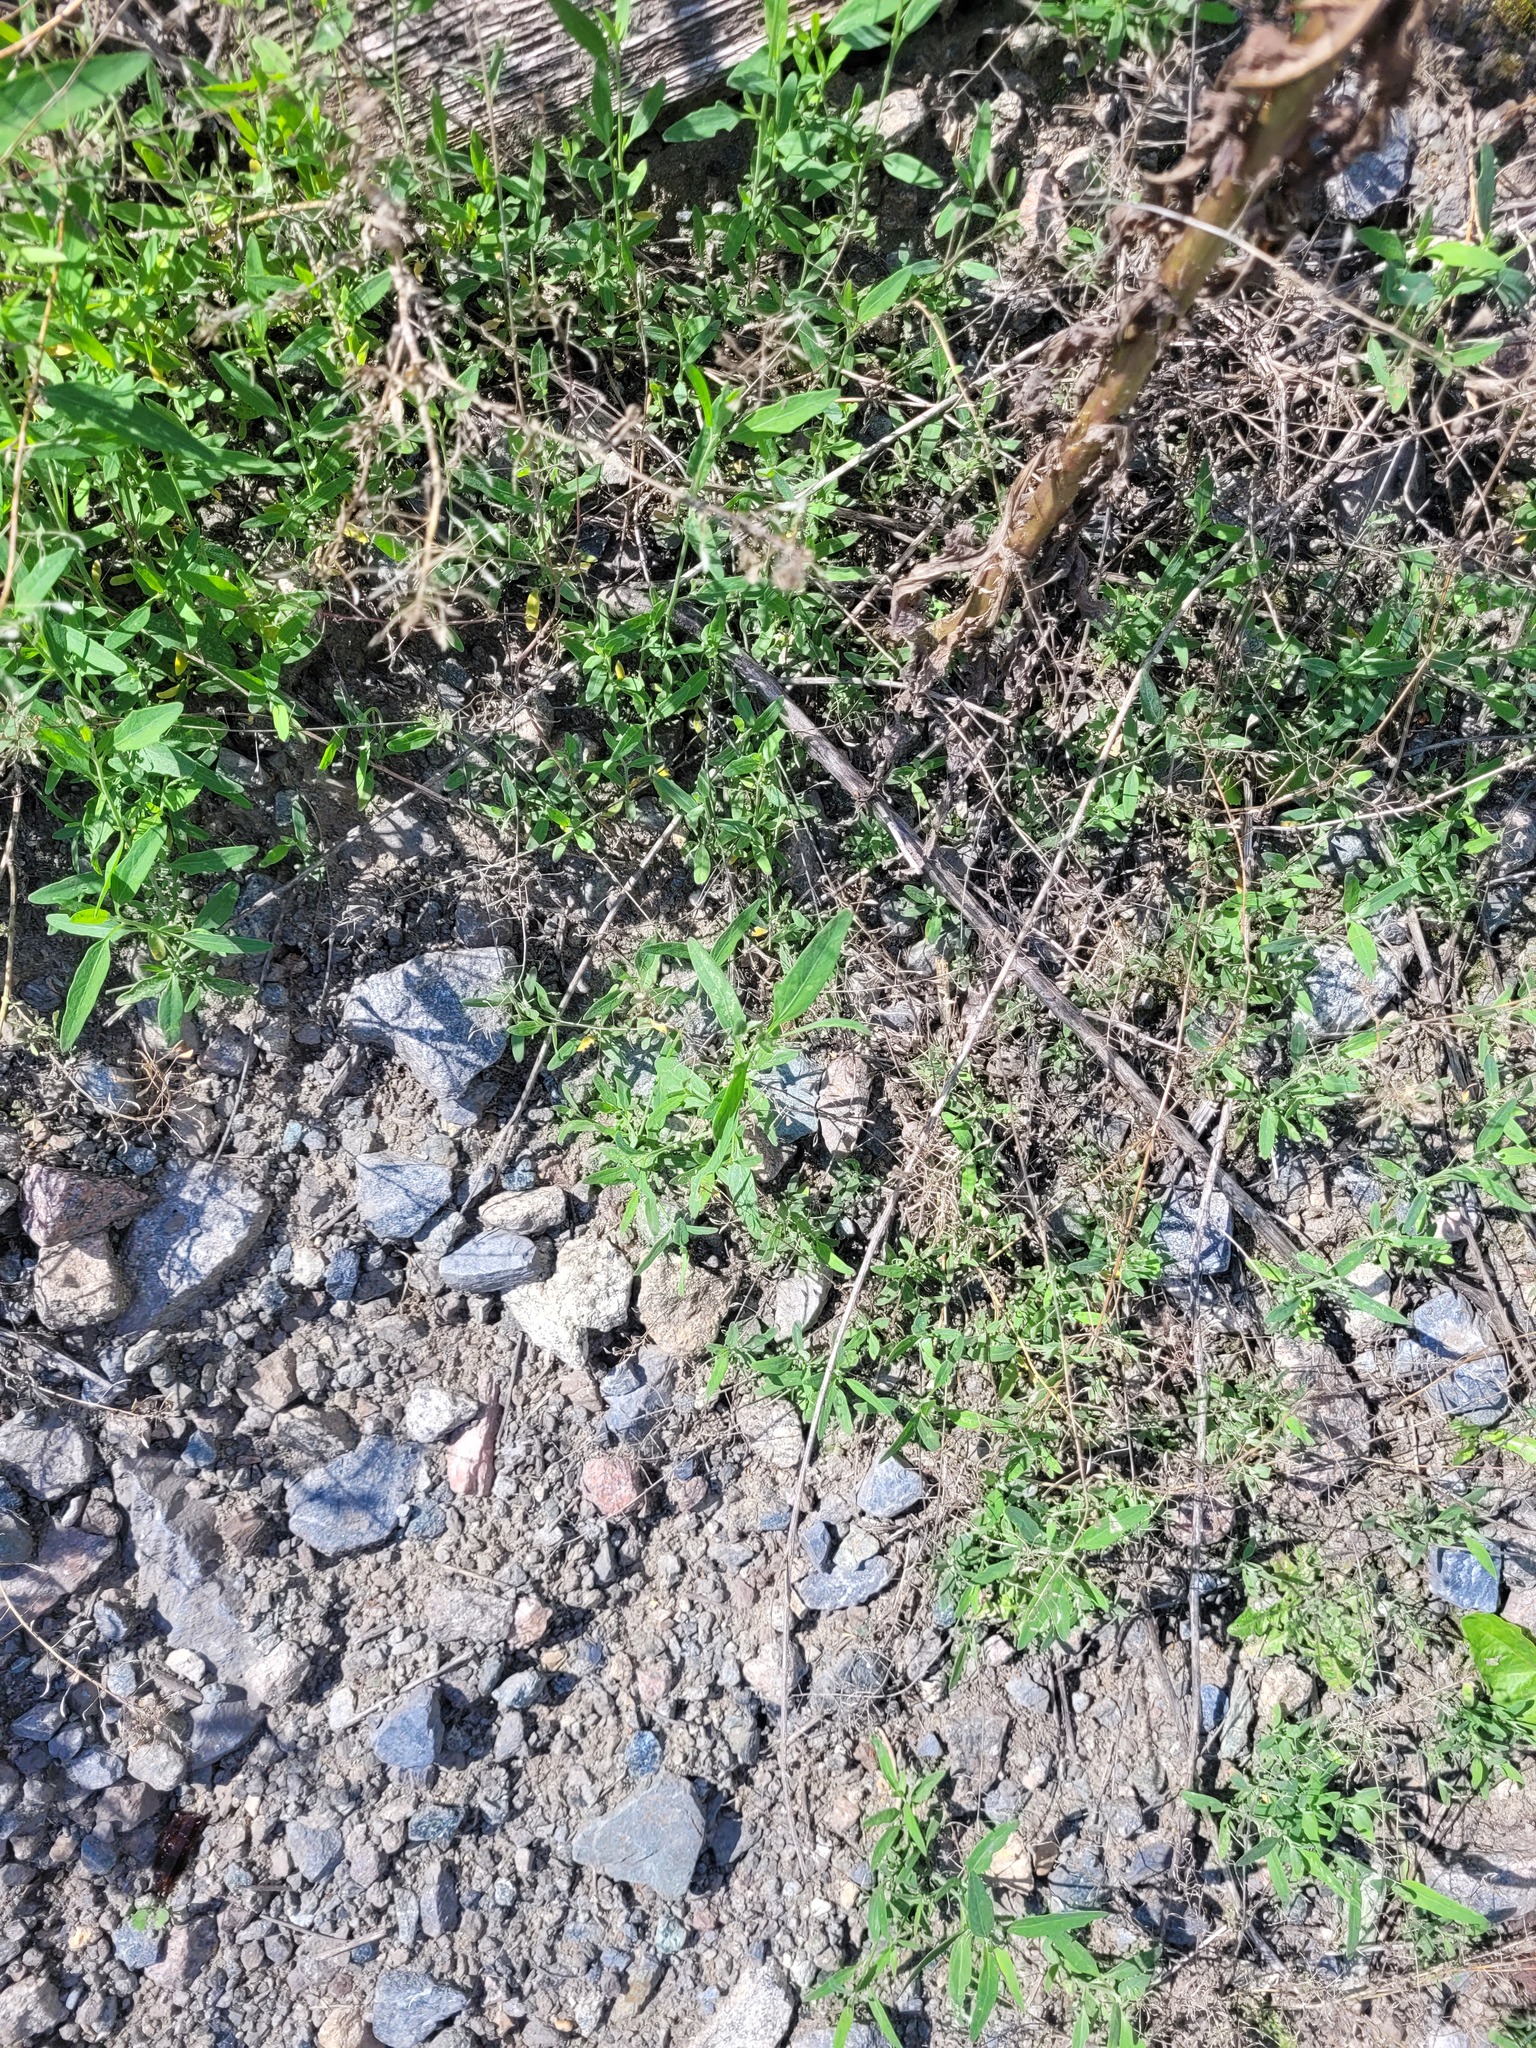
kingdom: Plantae
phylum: Tracheophyta
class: Magnoliopsida
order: Caryophyllales
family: Amaranthaceae
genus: Atriplex
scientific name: Atriplex patula
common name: Common orache
